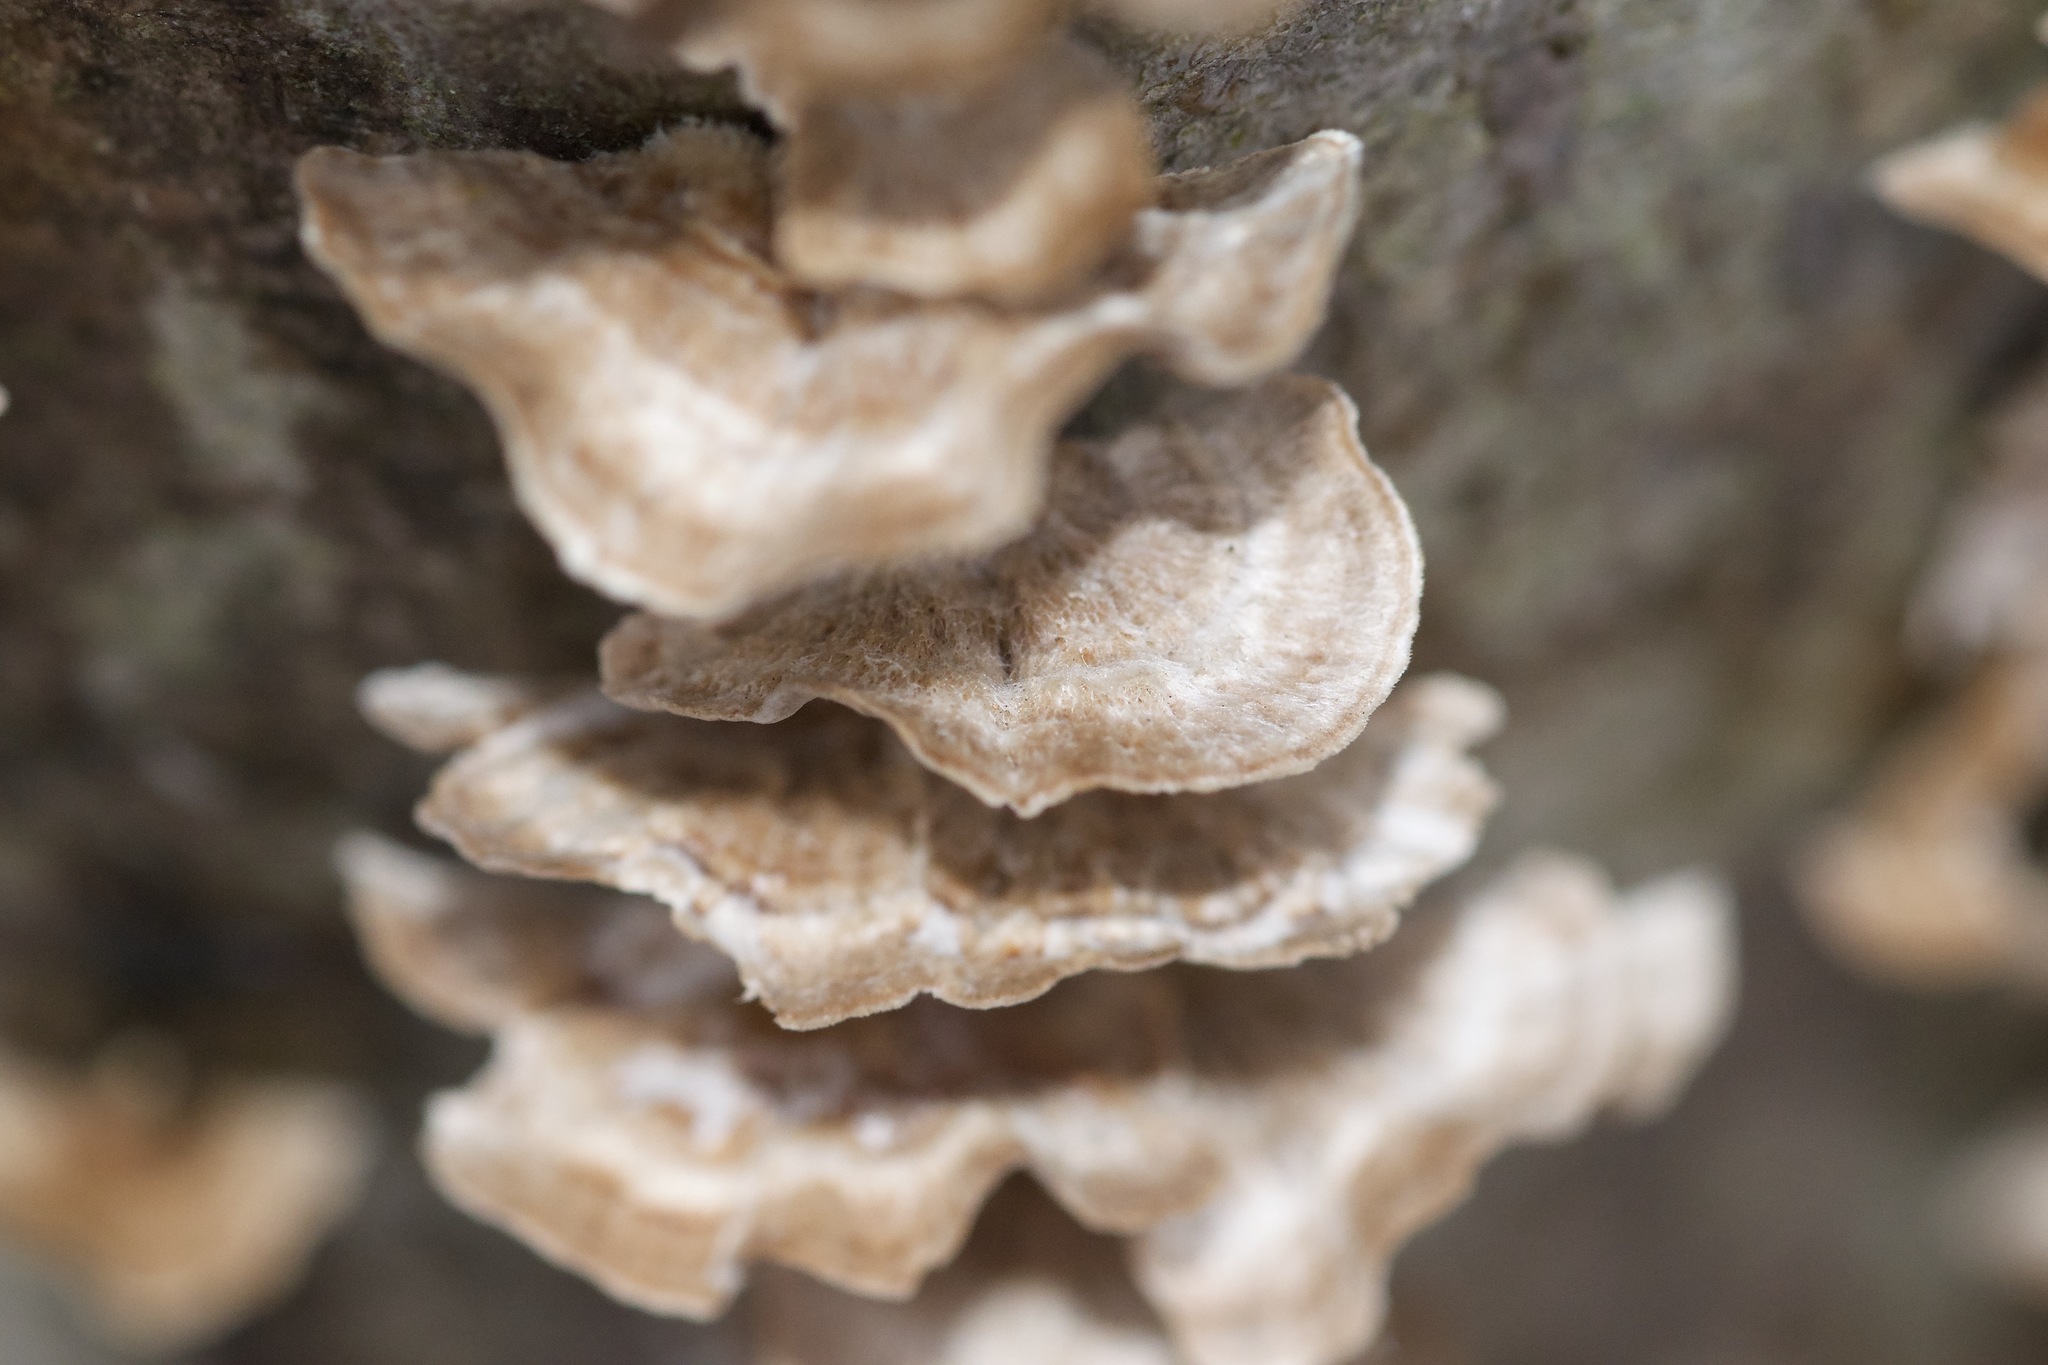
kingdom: Fungi
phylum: Basidiomycota
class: Agaricomycetes
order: Russulales
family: Stereaceae
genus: Stereum
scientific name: Stereum striatum
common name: Silky parchment
